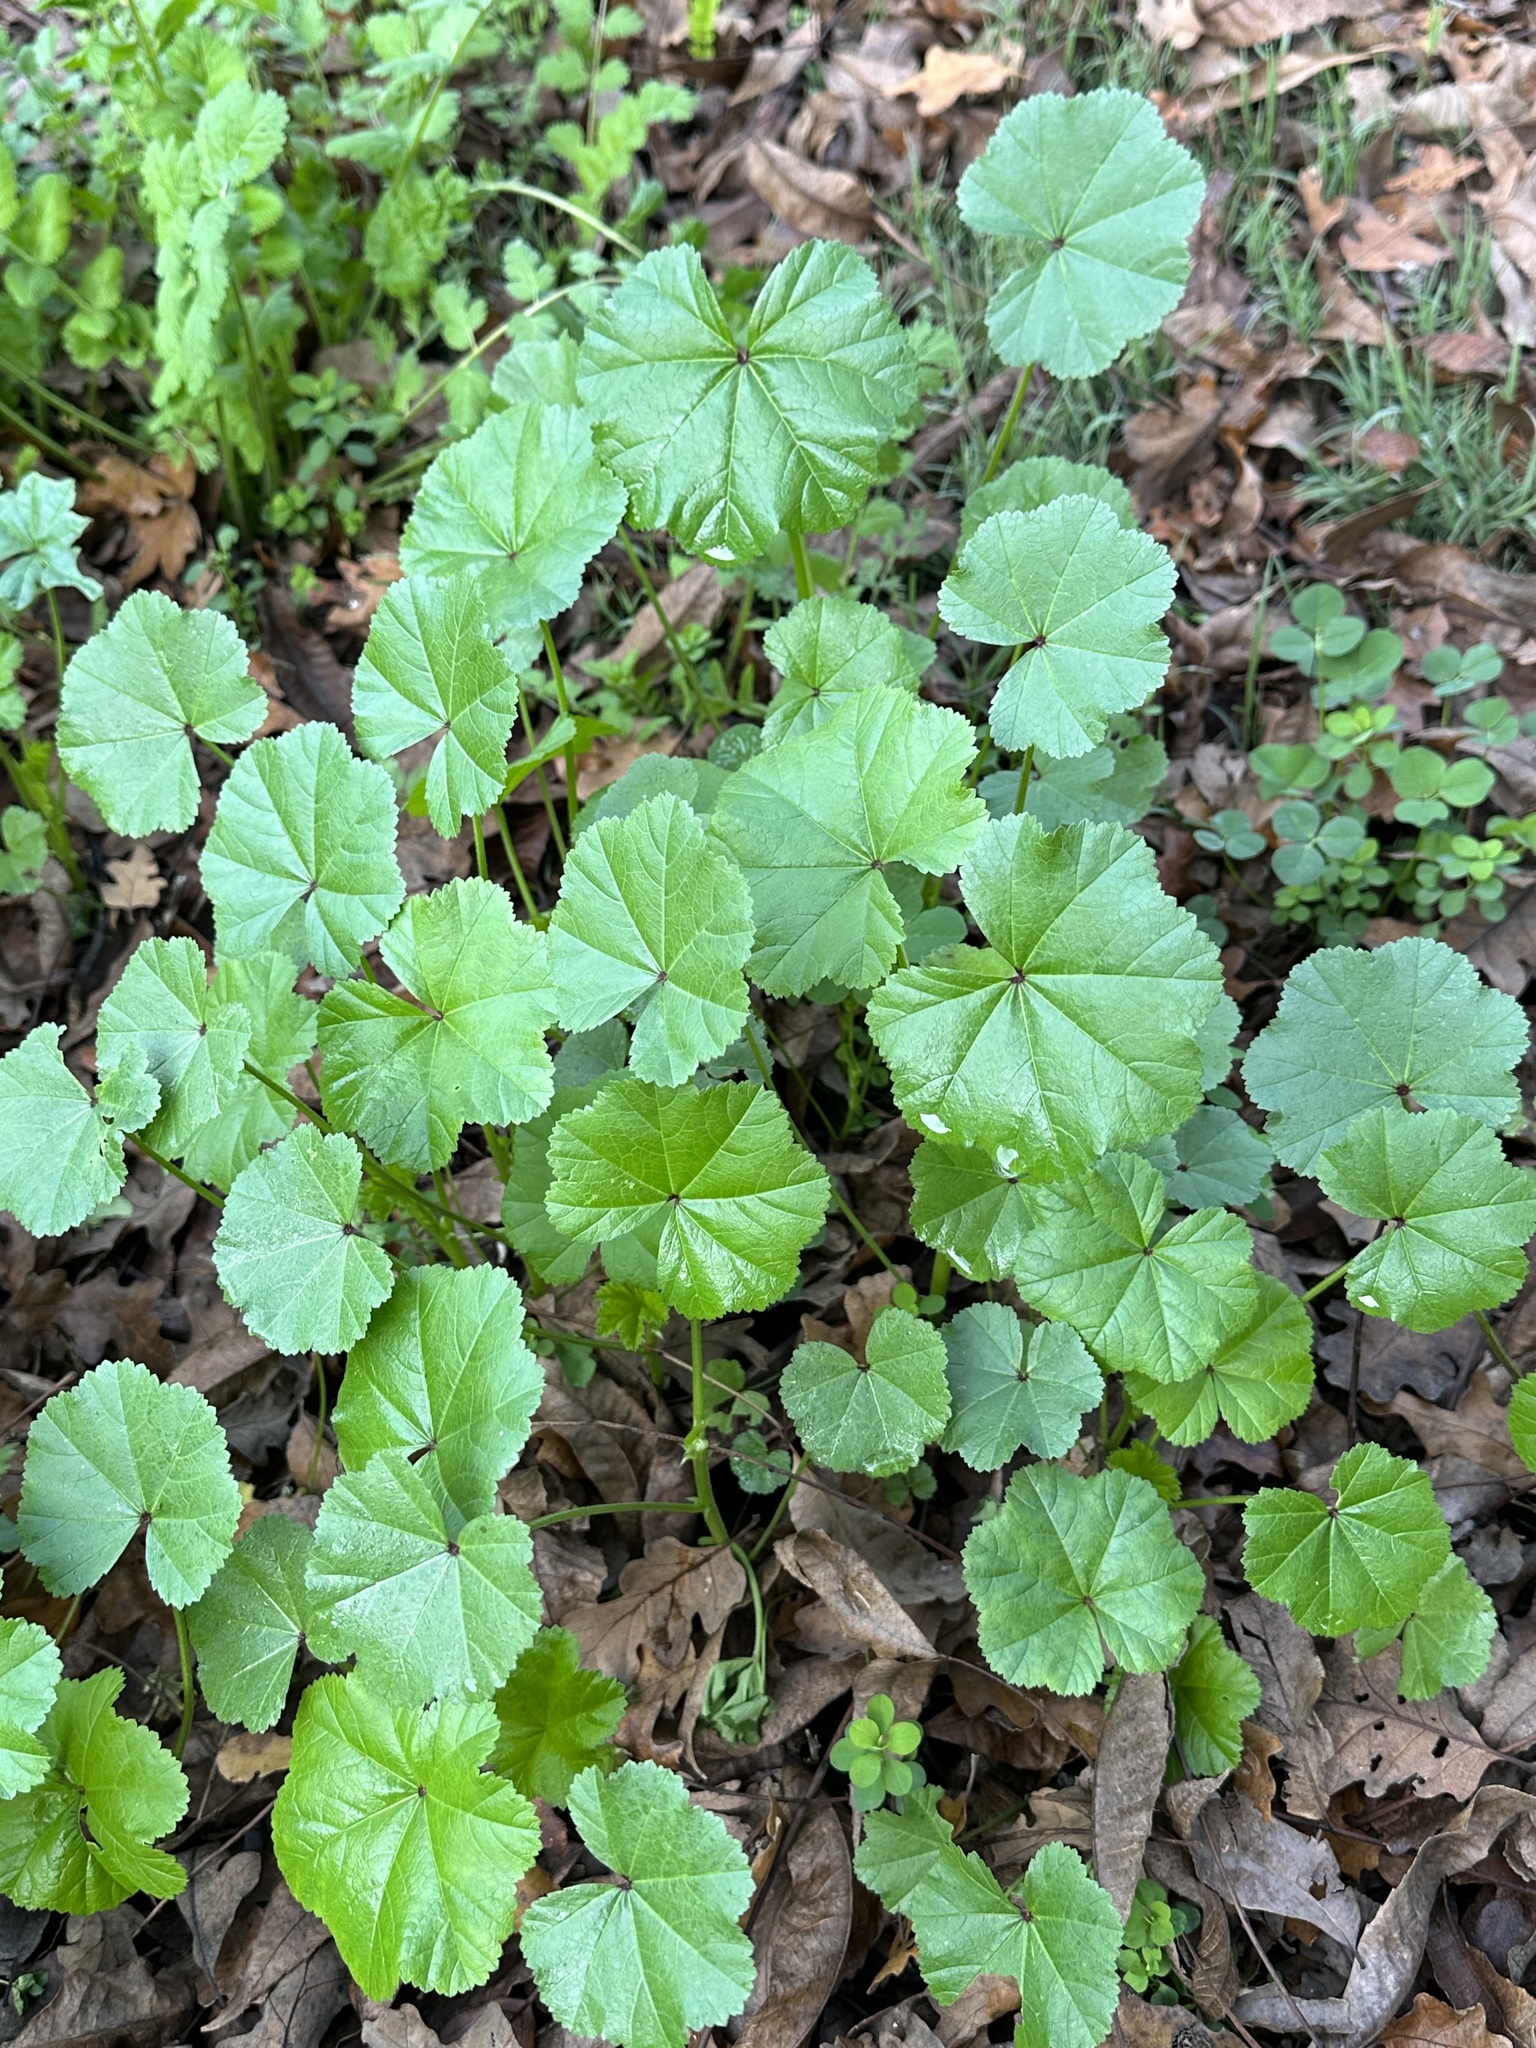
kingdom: Plantae
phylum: Tracheophyta
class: Magnoliopsida
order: Malvales
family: Malvaceae
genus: Malva
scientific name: Malva
